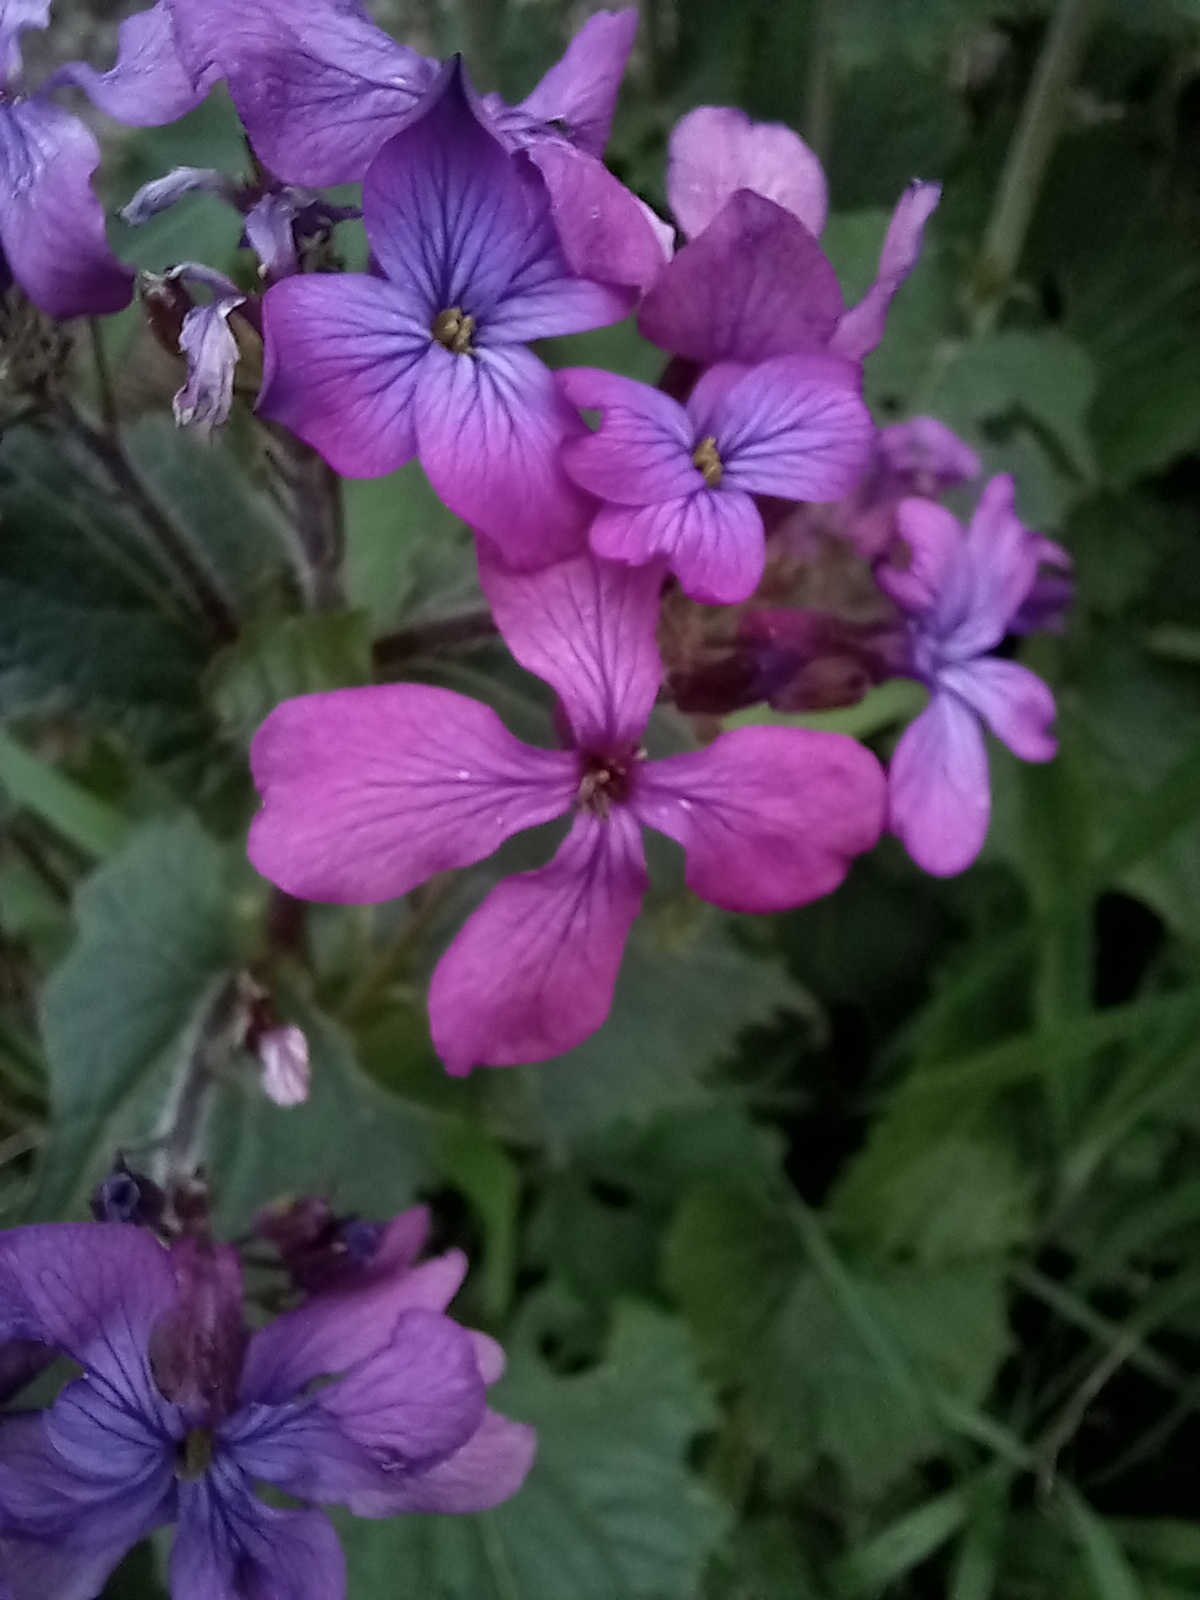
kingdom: Plantae
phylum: Tracheophyta
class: Magnoliopsida
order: Brassicales
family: Brassicaceae
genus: Lunaria
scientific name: Lunaria annua
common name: Honesty
